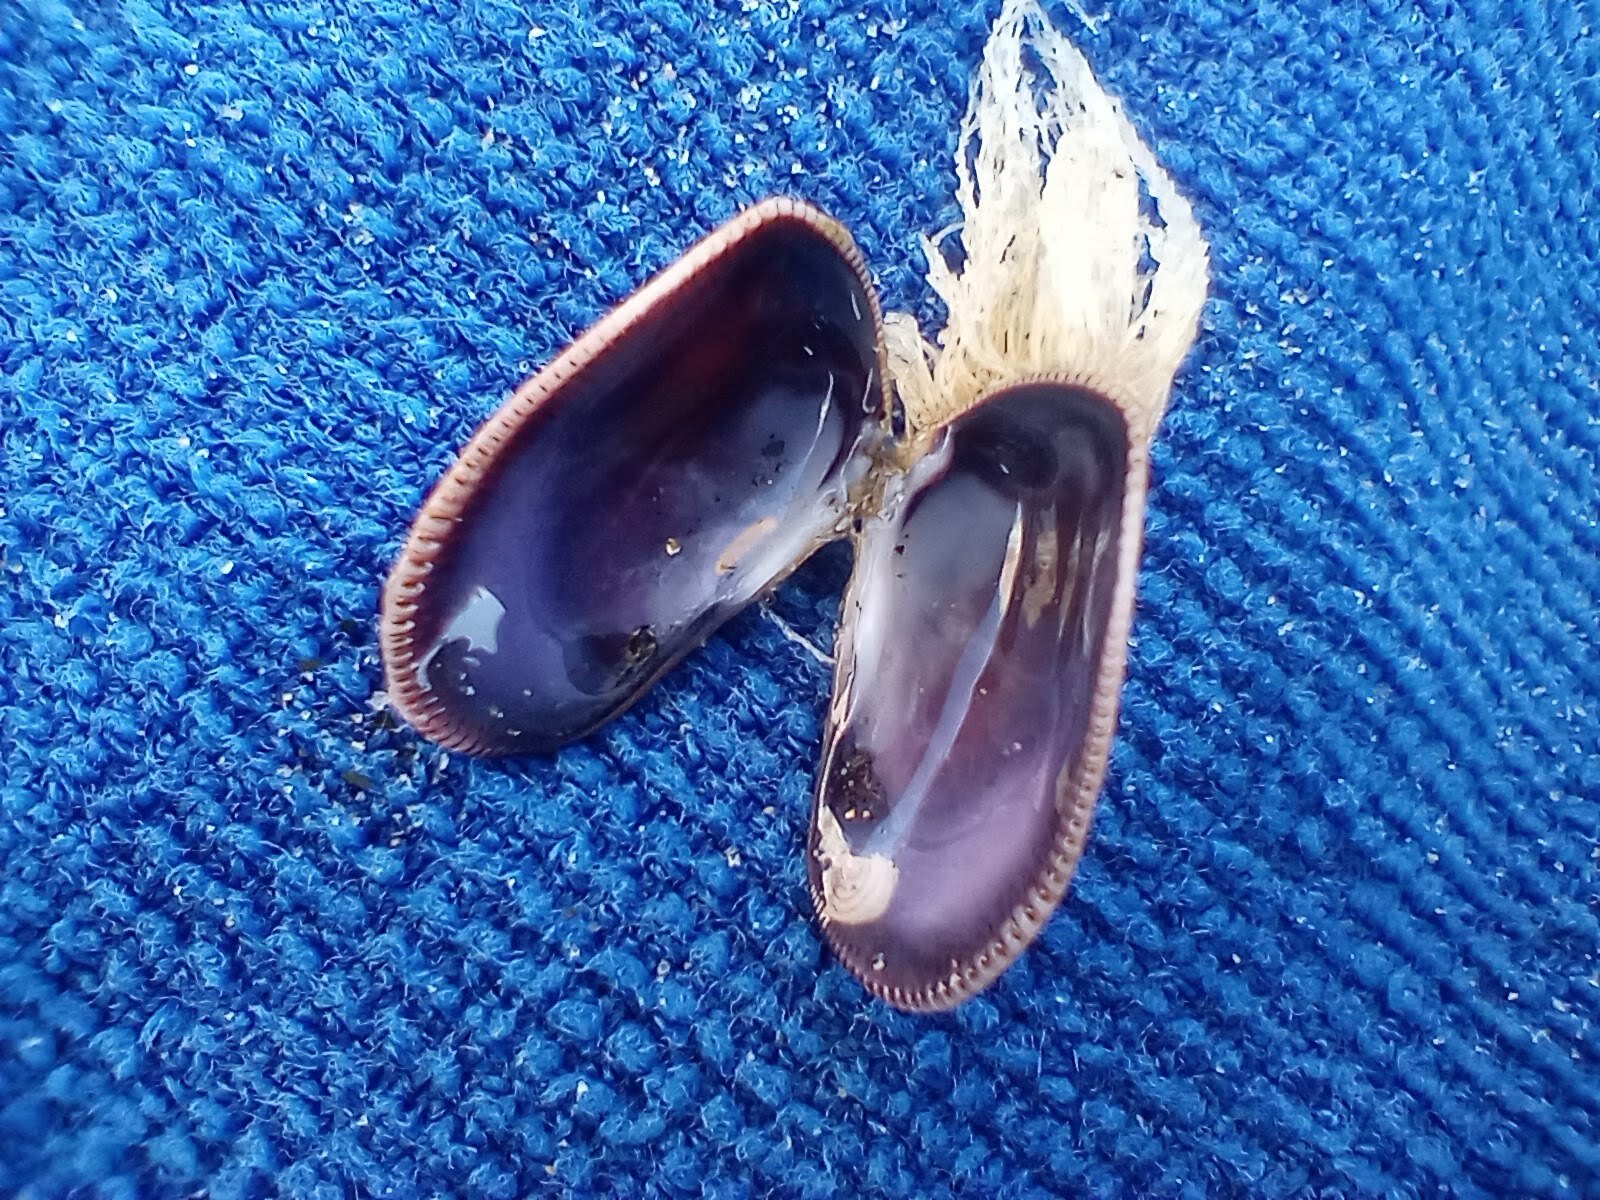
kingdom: Animalia
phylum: Mollusca
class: Bivalvia
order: Cardiida
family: Donacidae
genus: Donax
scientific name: Donax gouldii
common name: Gould beanclam
